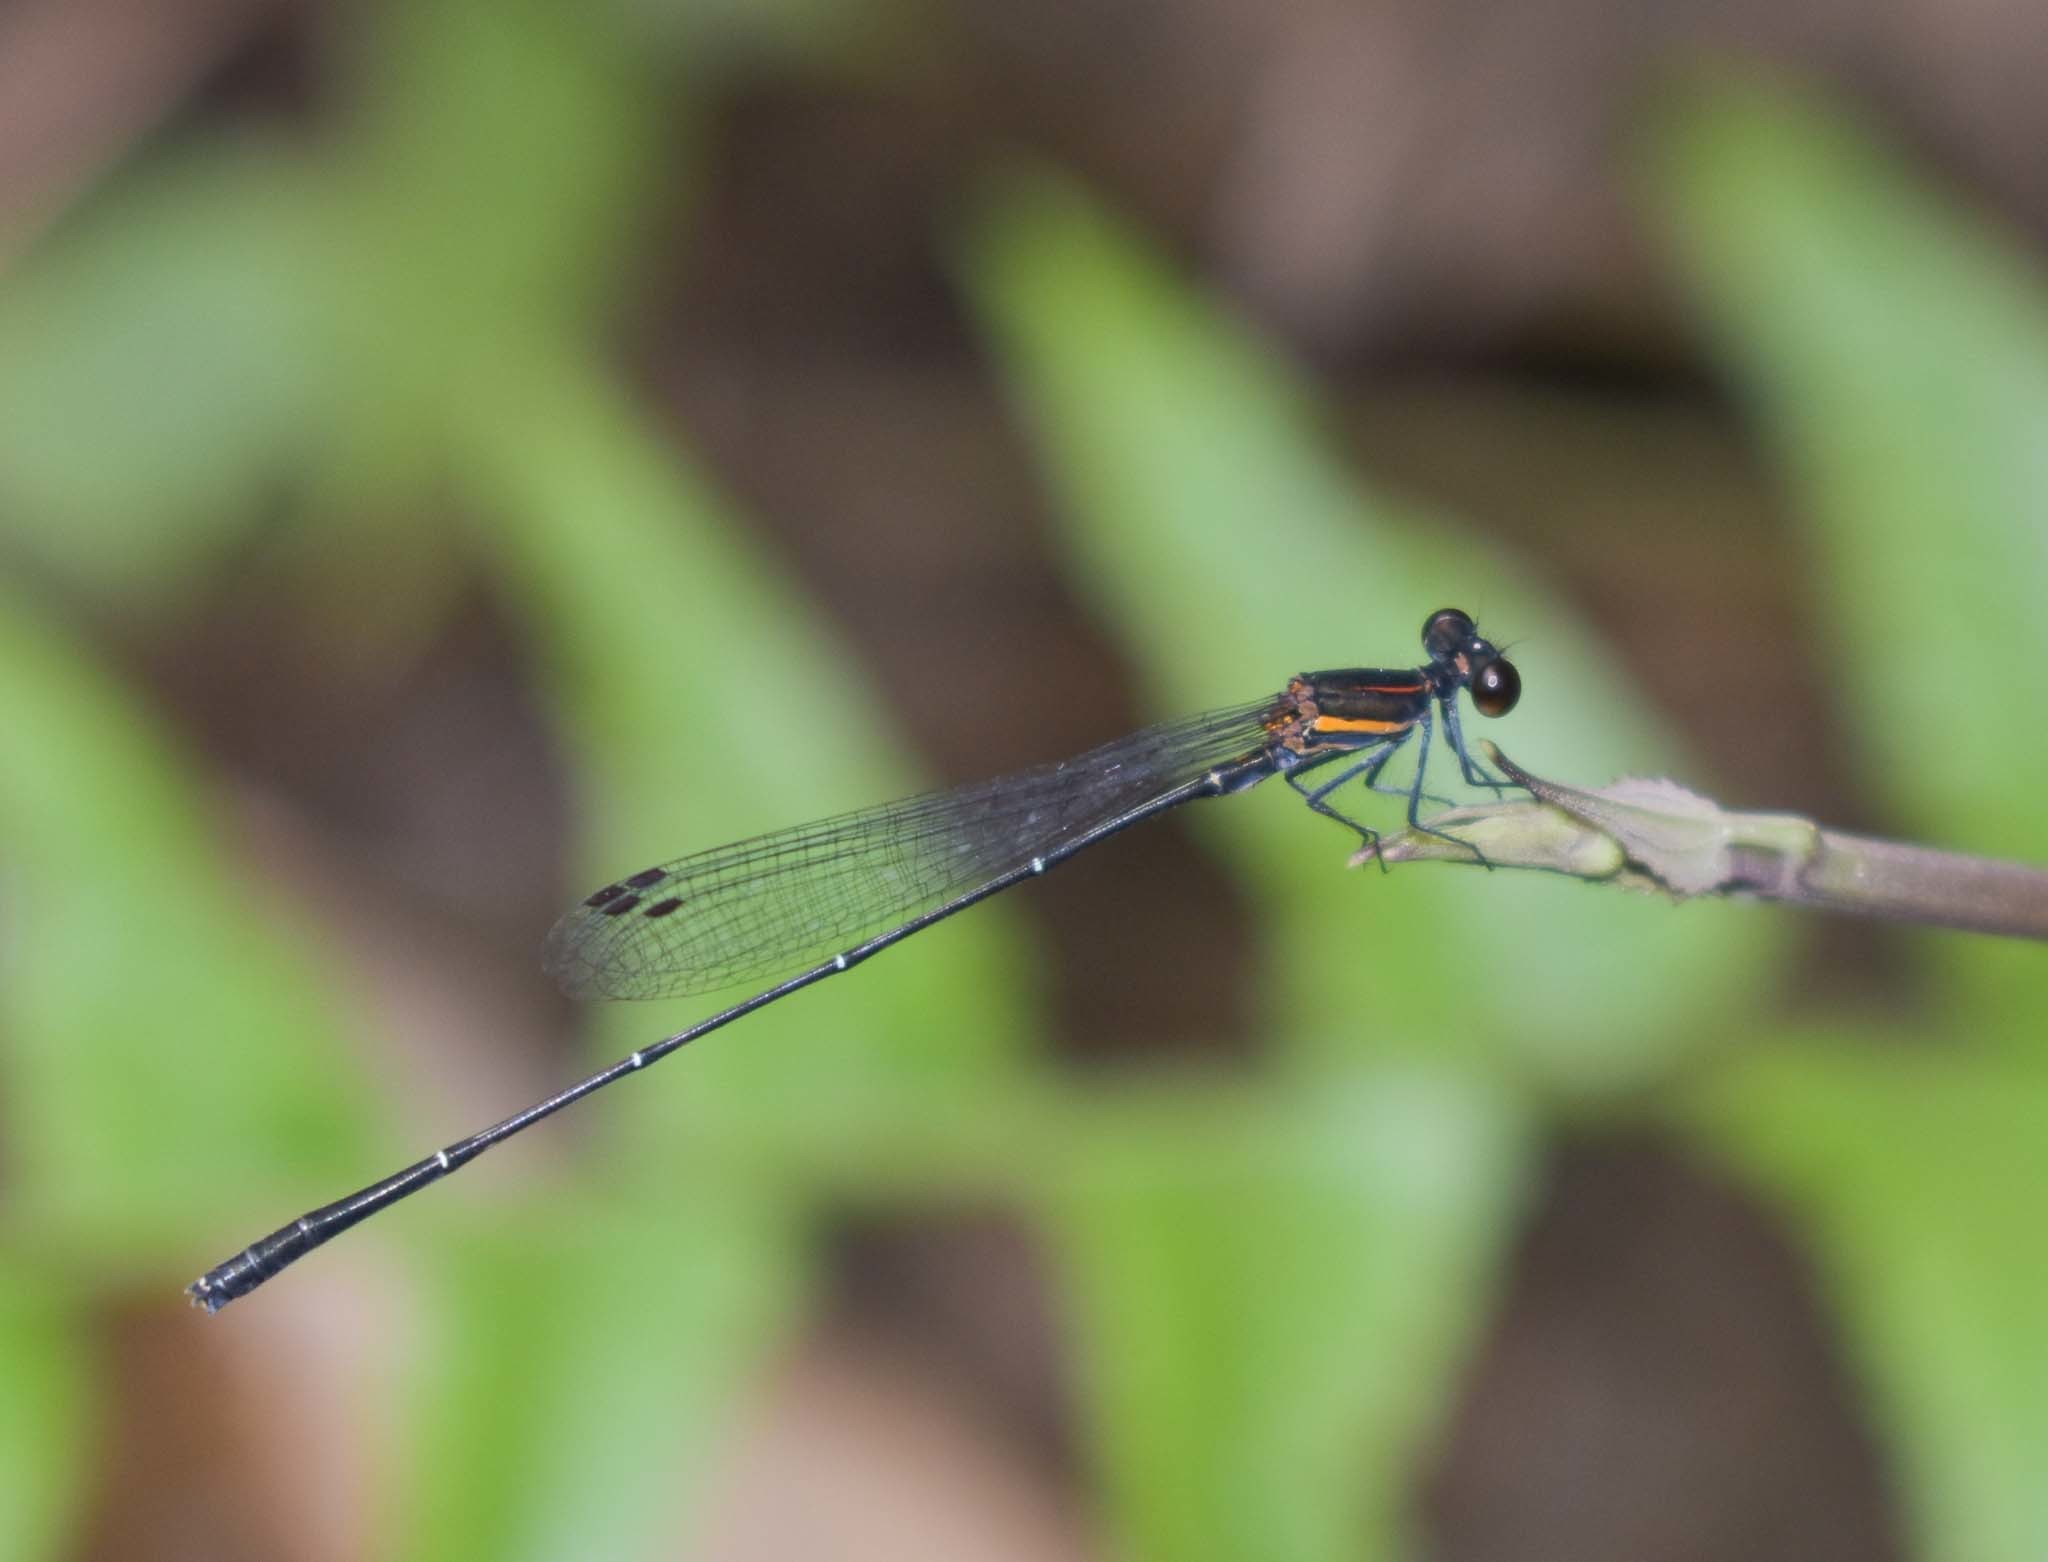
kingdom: Animalia
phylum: Arthropoda
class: Insecta
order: Odonata
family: Platycnemididae
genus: Prodasineura
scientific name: Prodasineura verticalis
